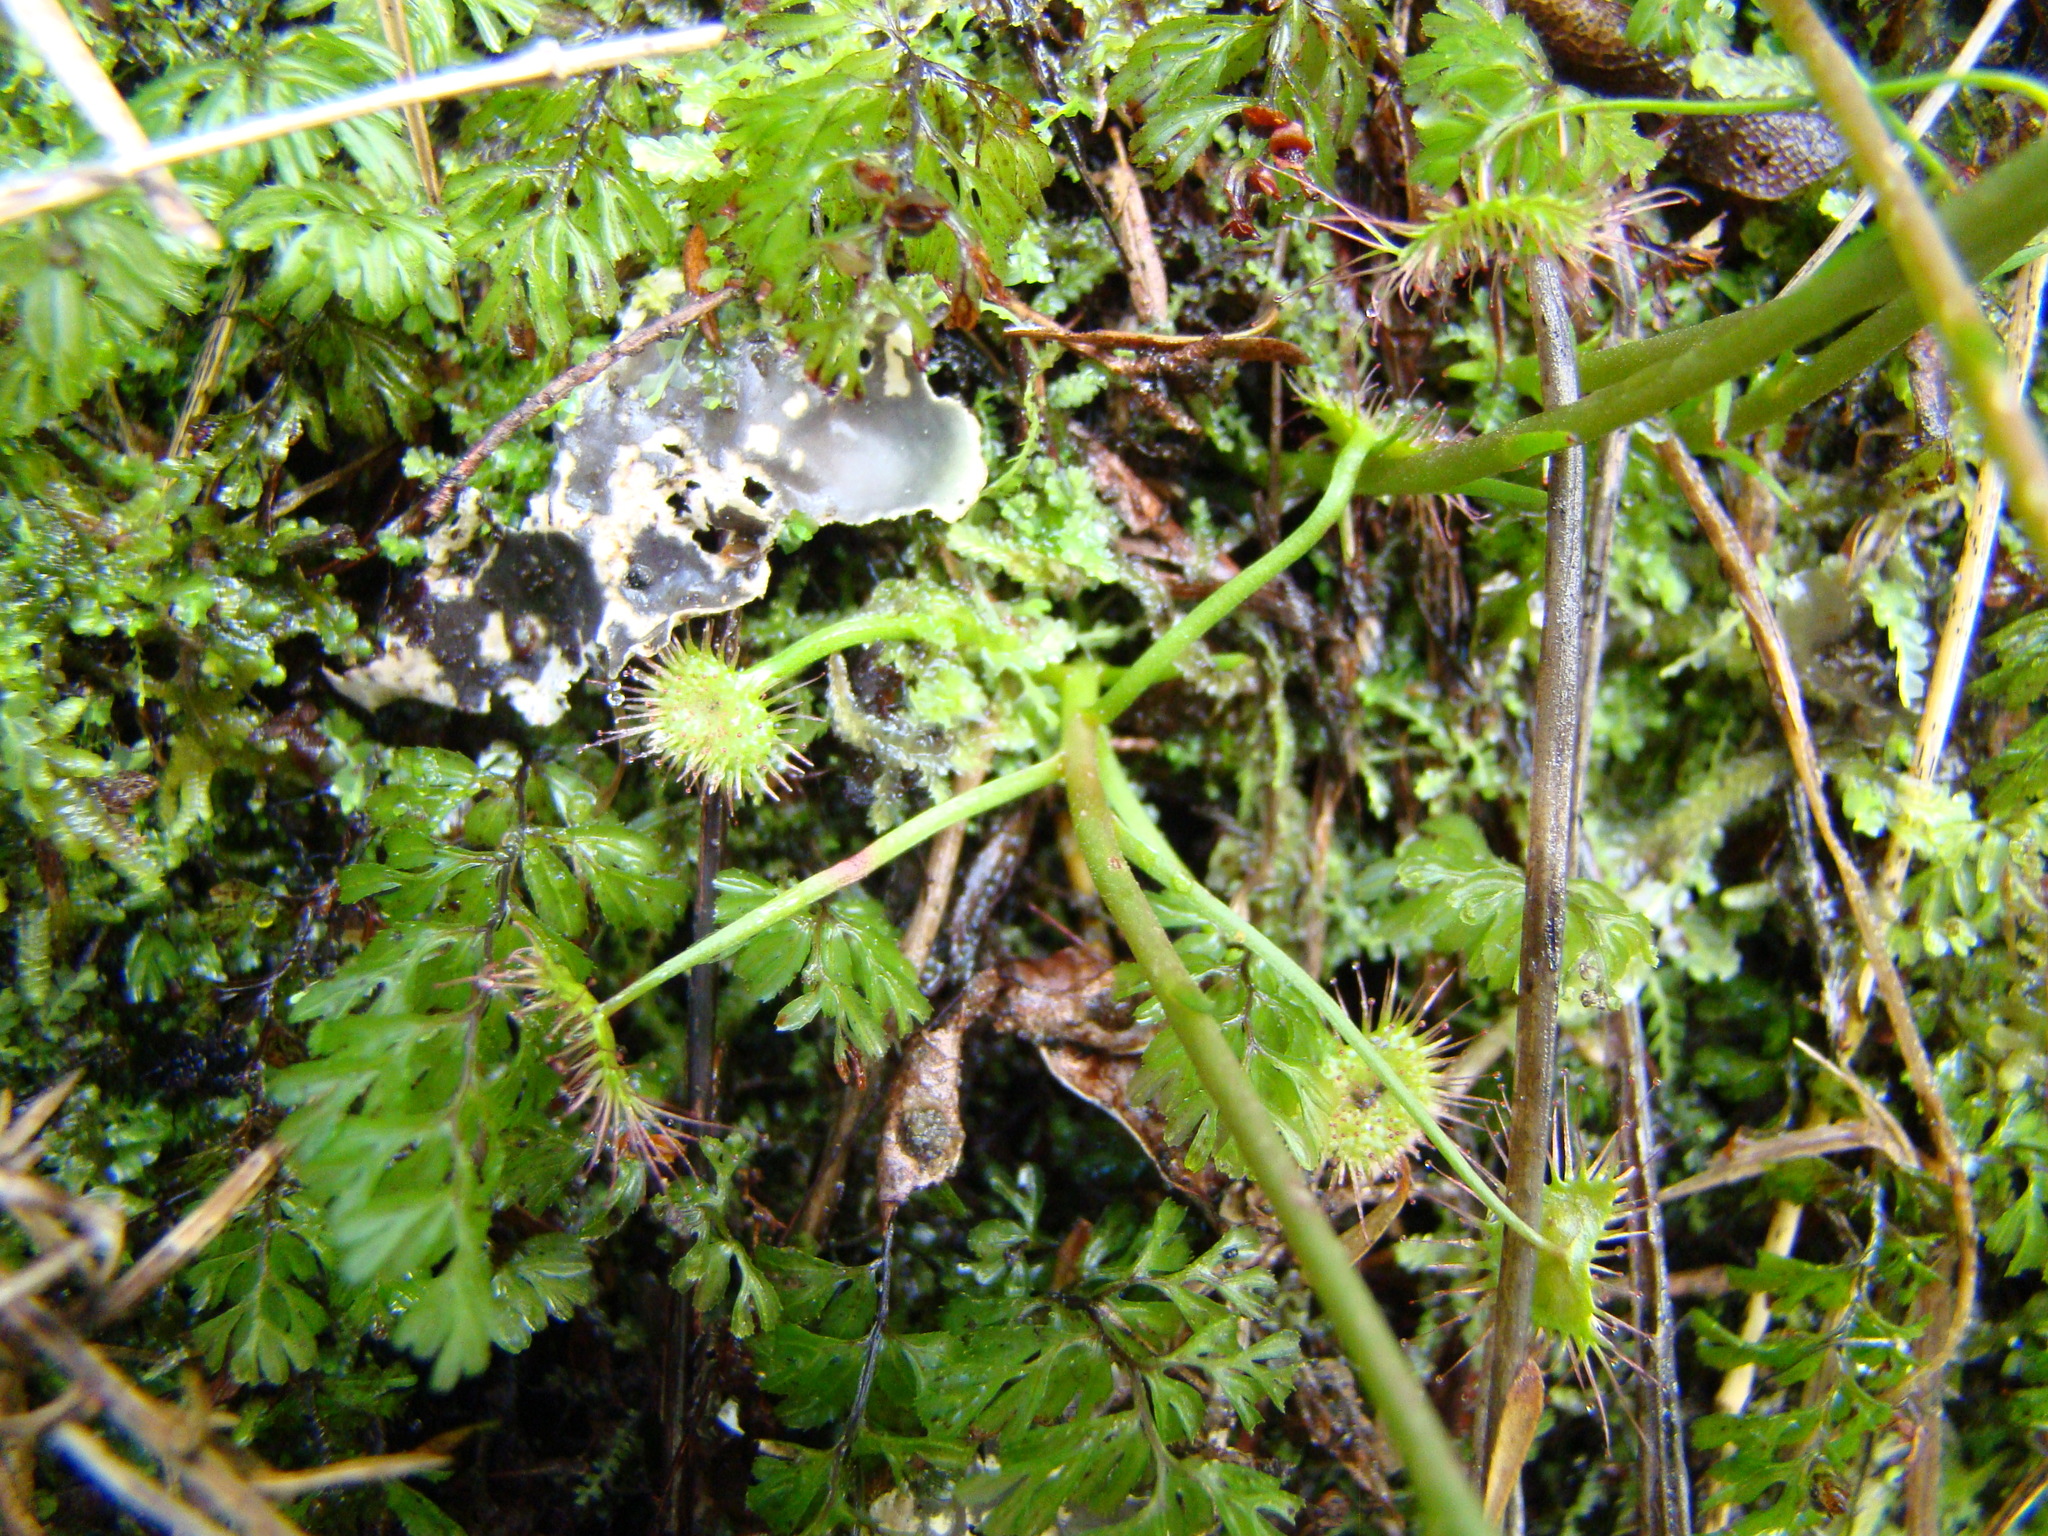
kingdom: Plantae
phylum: Tracheophyta
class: Magnoliopsida
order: Caryophyllales
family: Droseraceae
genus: Drosera
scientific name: Drosera peltata
